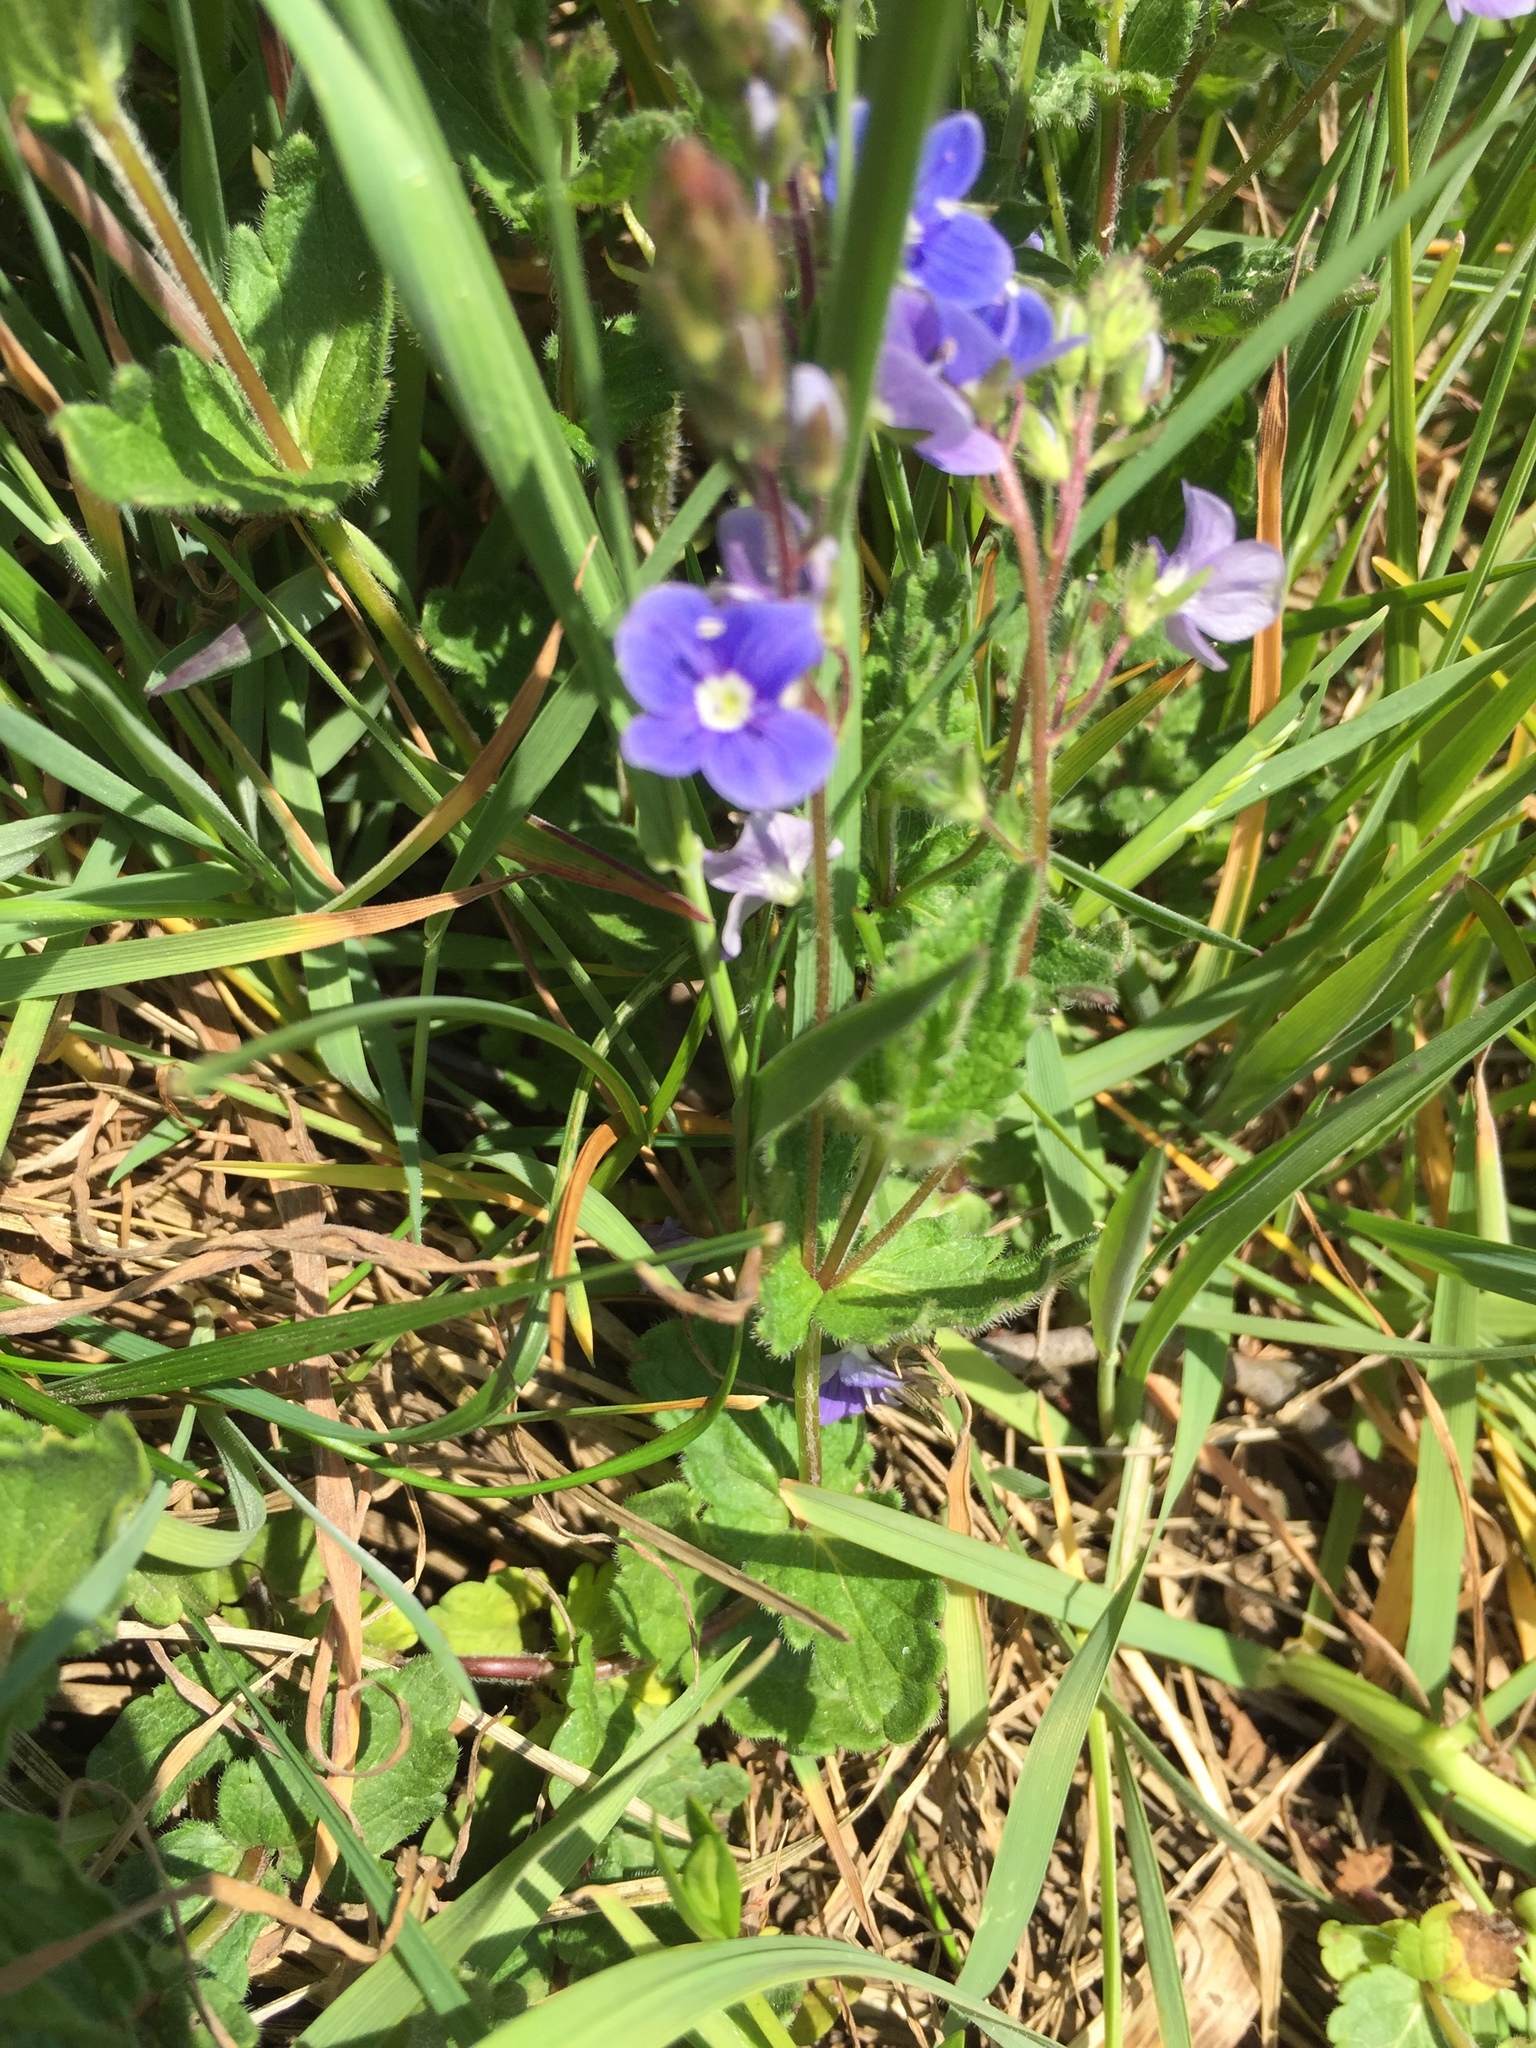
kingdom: Plantae
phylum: Tracheophyta
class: Magnoliopsida
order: Lamiales
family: Plantaginaceae
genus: Veronica
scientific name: Veronica chamaedrys
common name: Germander speedwell
